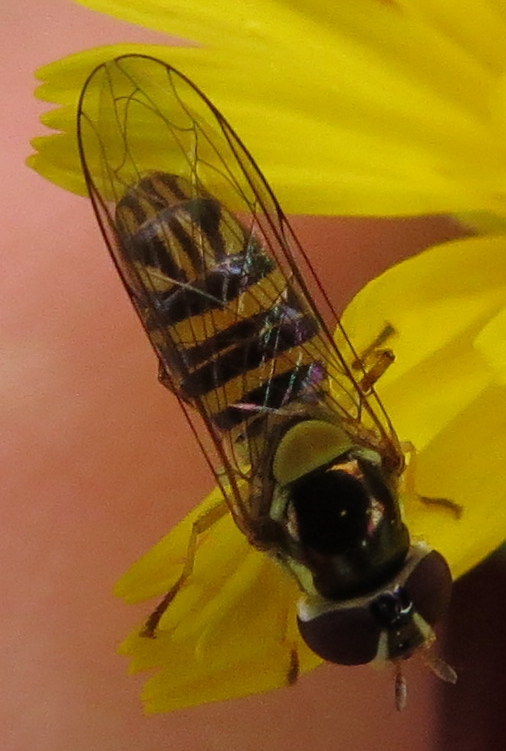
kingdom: Animalia
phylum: Arthropoda
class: Insecta
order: Diptera
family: Syrphidae
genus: Allograpta
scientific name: Allograpta obliqua
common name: Common oblique syrphid
